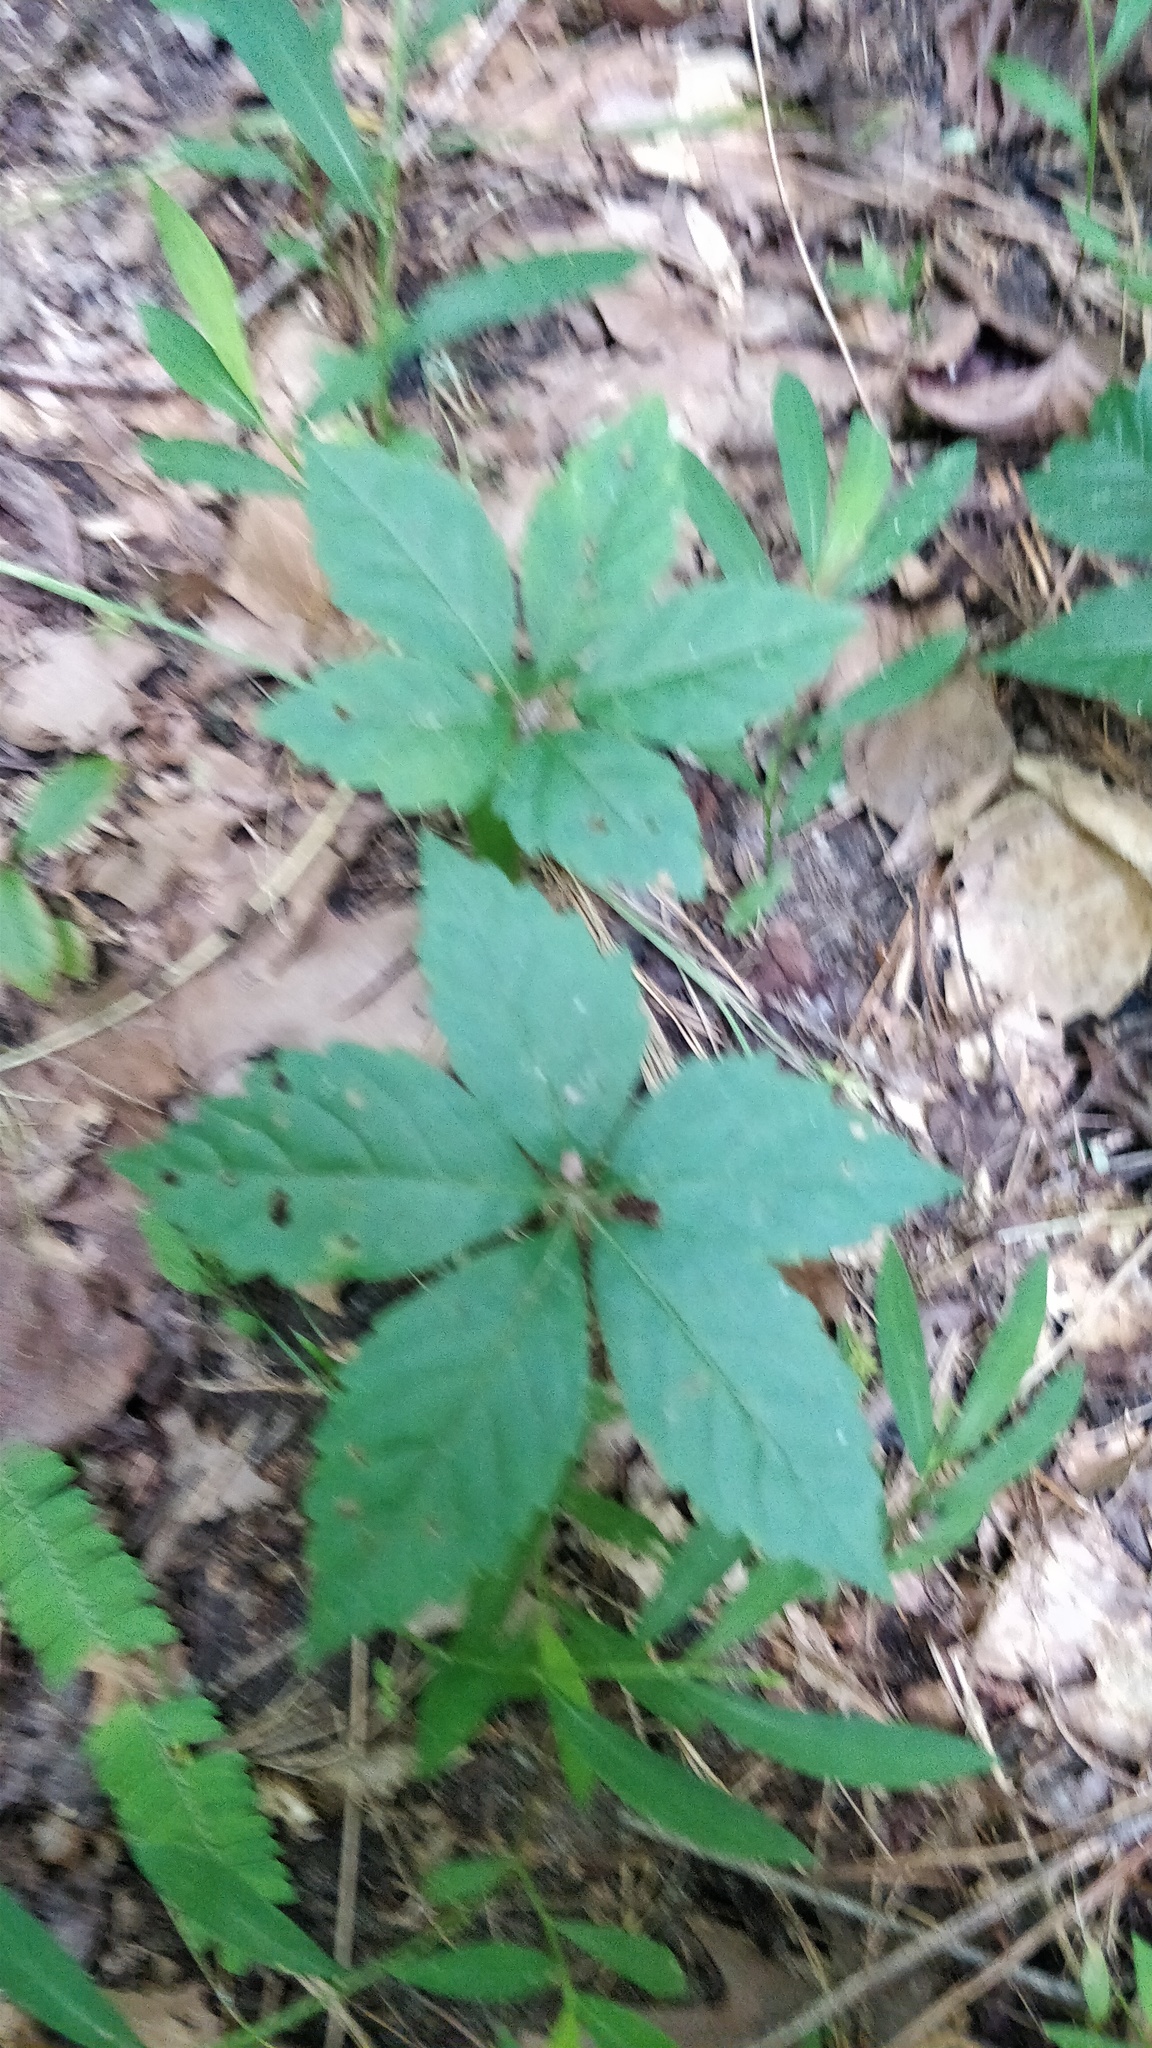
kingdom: Plantae
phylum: Tracheophyta
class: Magnoliopsida
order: Vitales
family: Vitaceae
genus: Parthenocissus
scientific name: Parthenocissus quinquefolia
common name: Virginia-creeper
